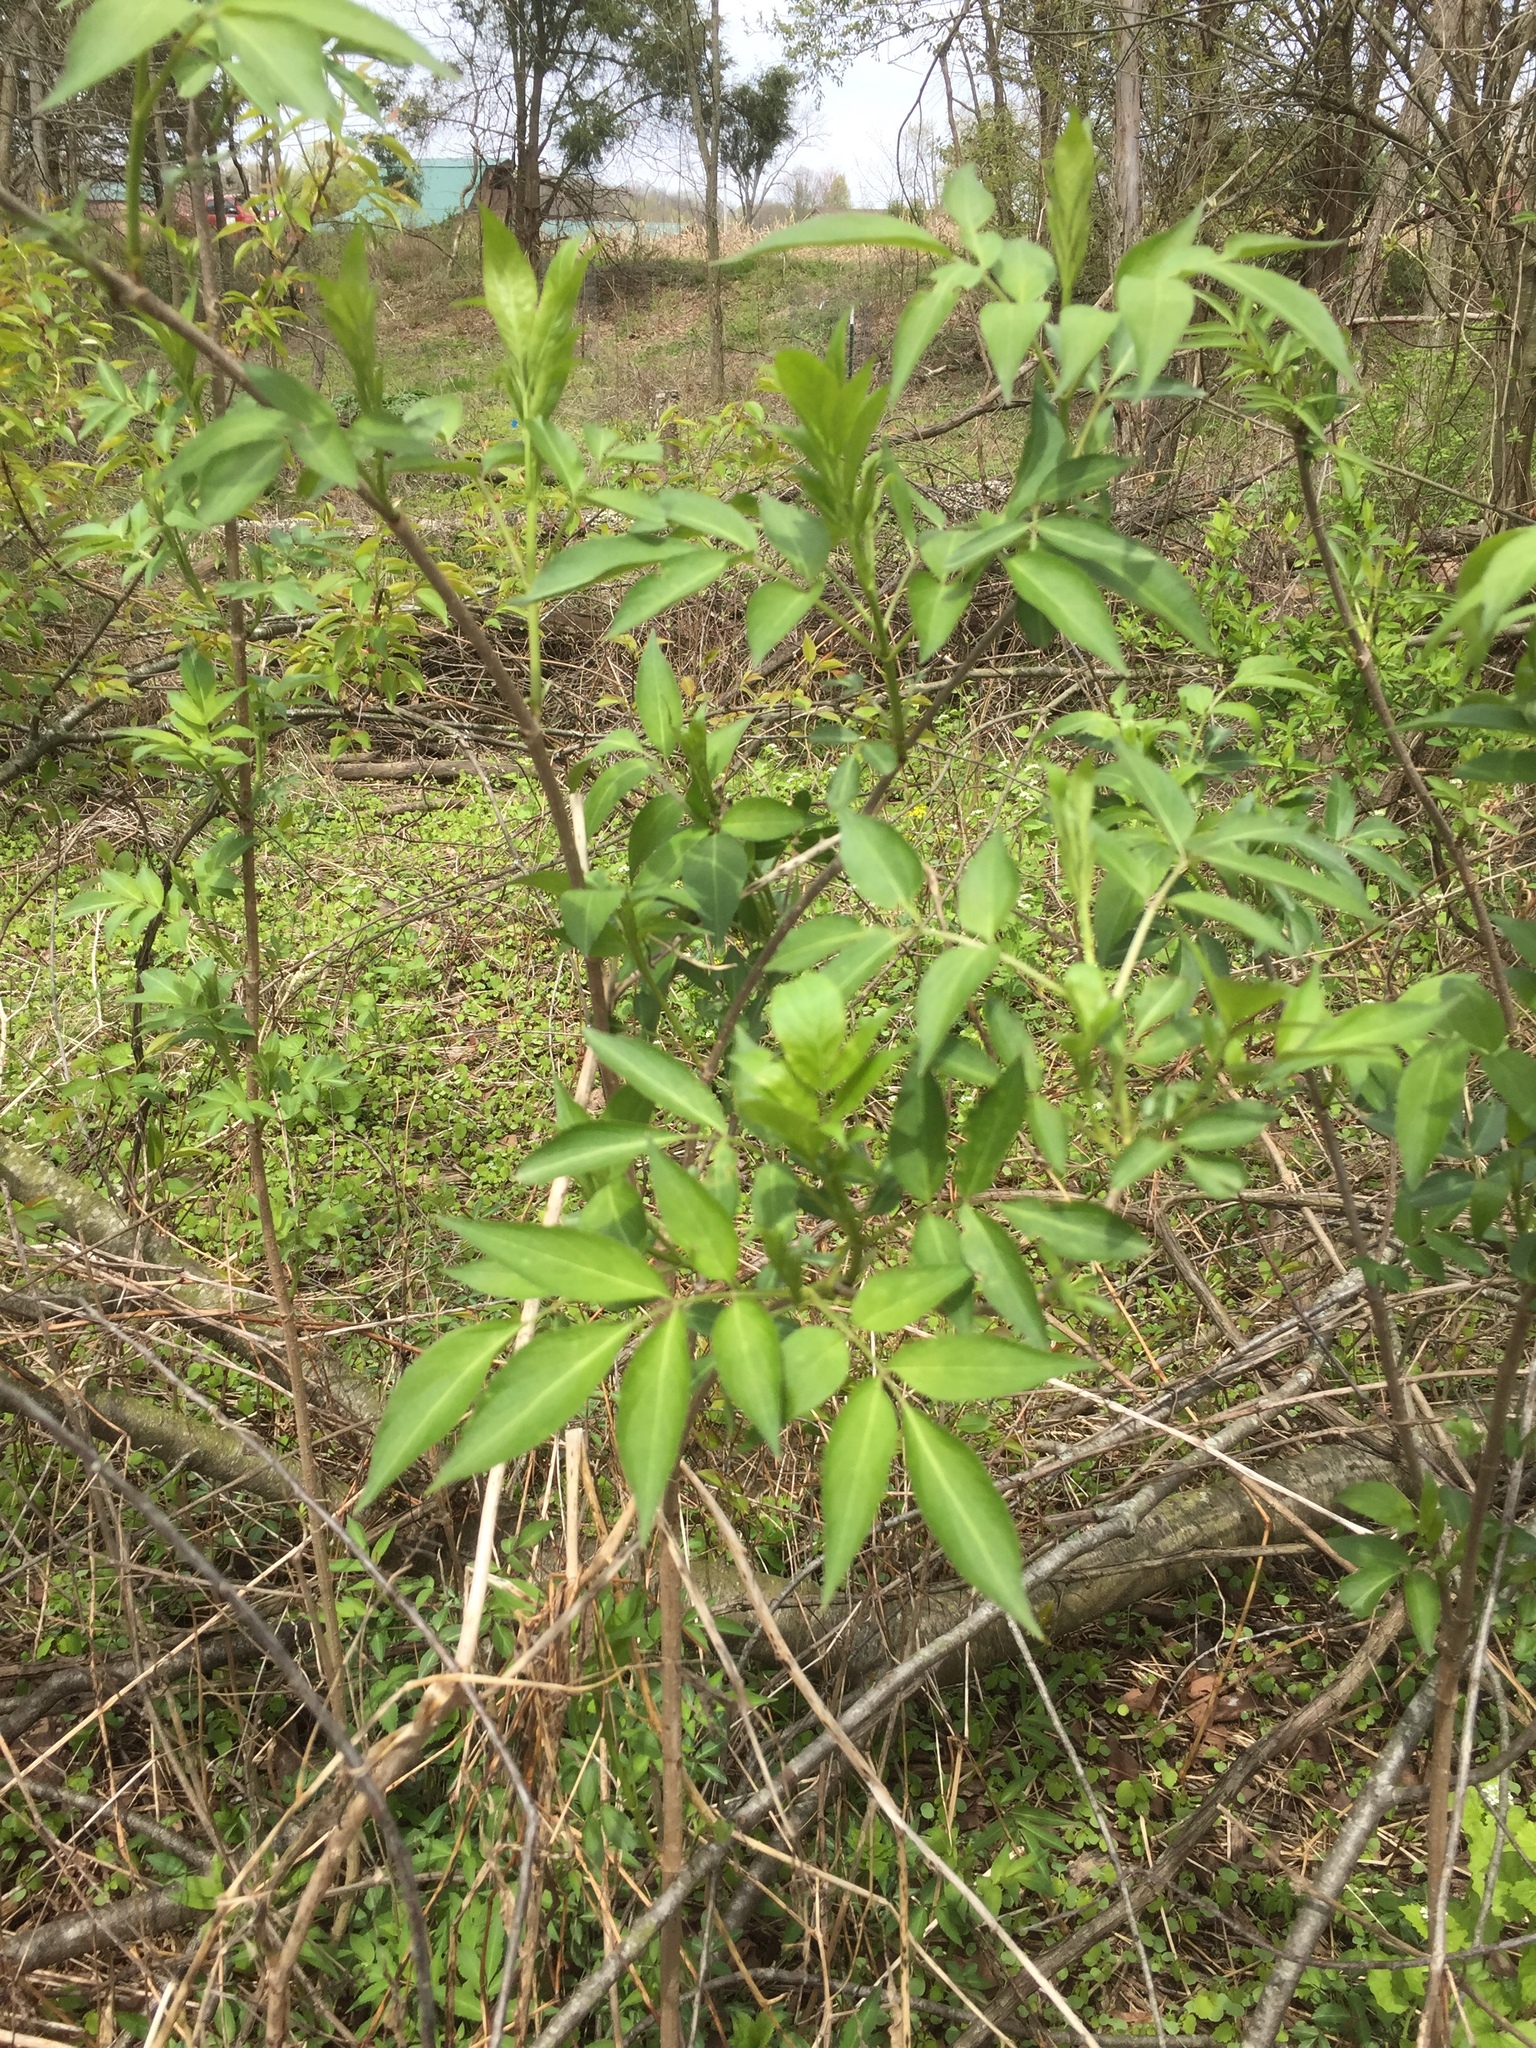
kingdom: Plantae
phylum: Tracheophyta
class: Magnoliopsida
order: Dipsacales
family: Viburnaceae
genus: Sambucus
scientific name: Sambucus canadensis
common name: American elder
